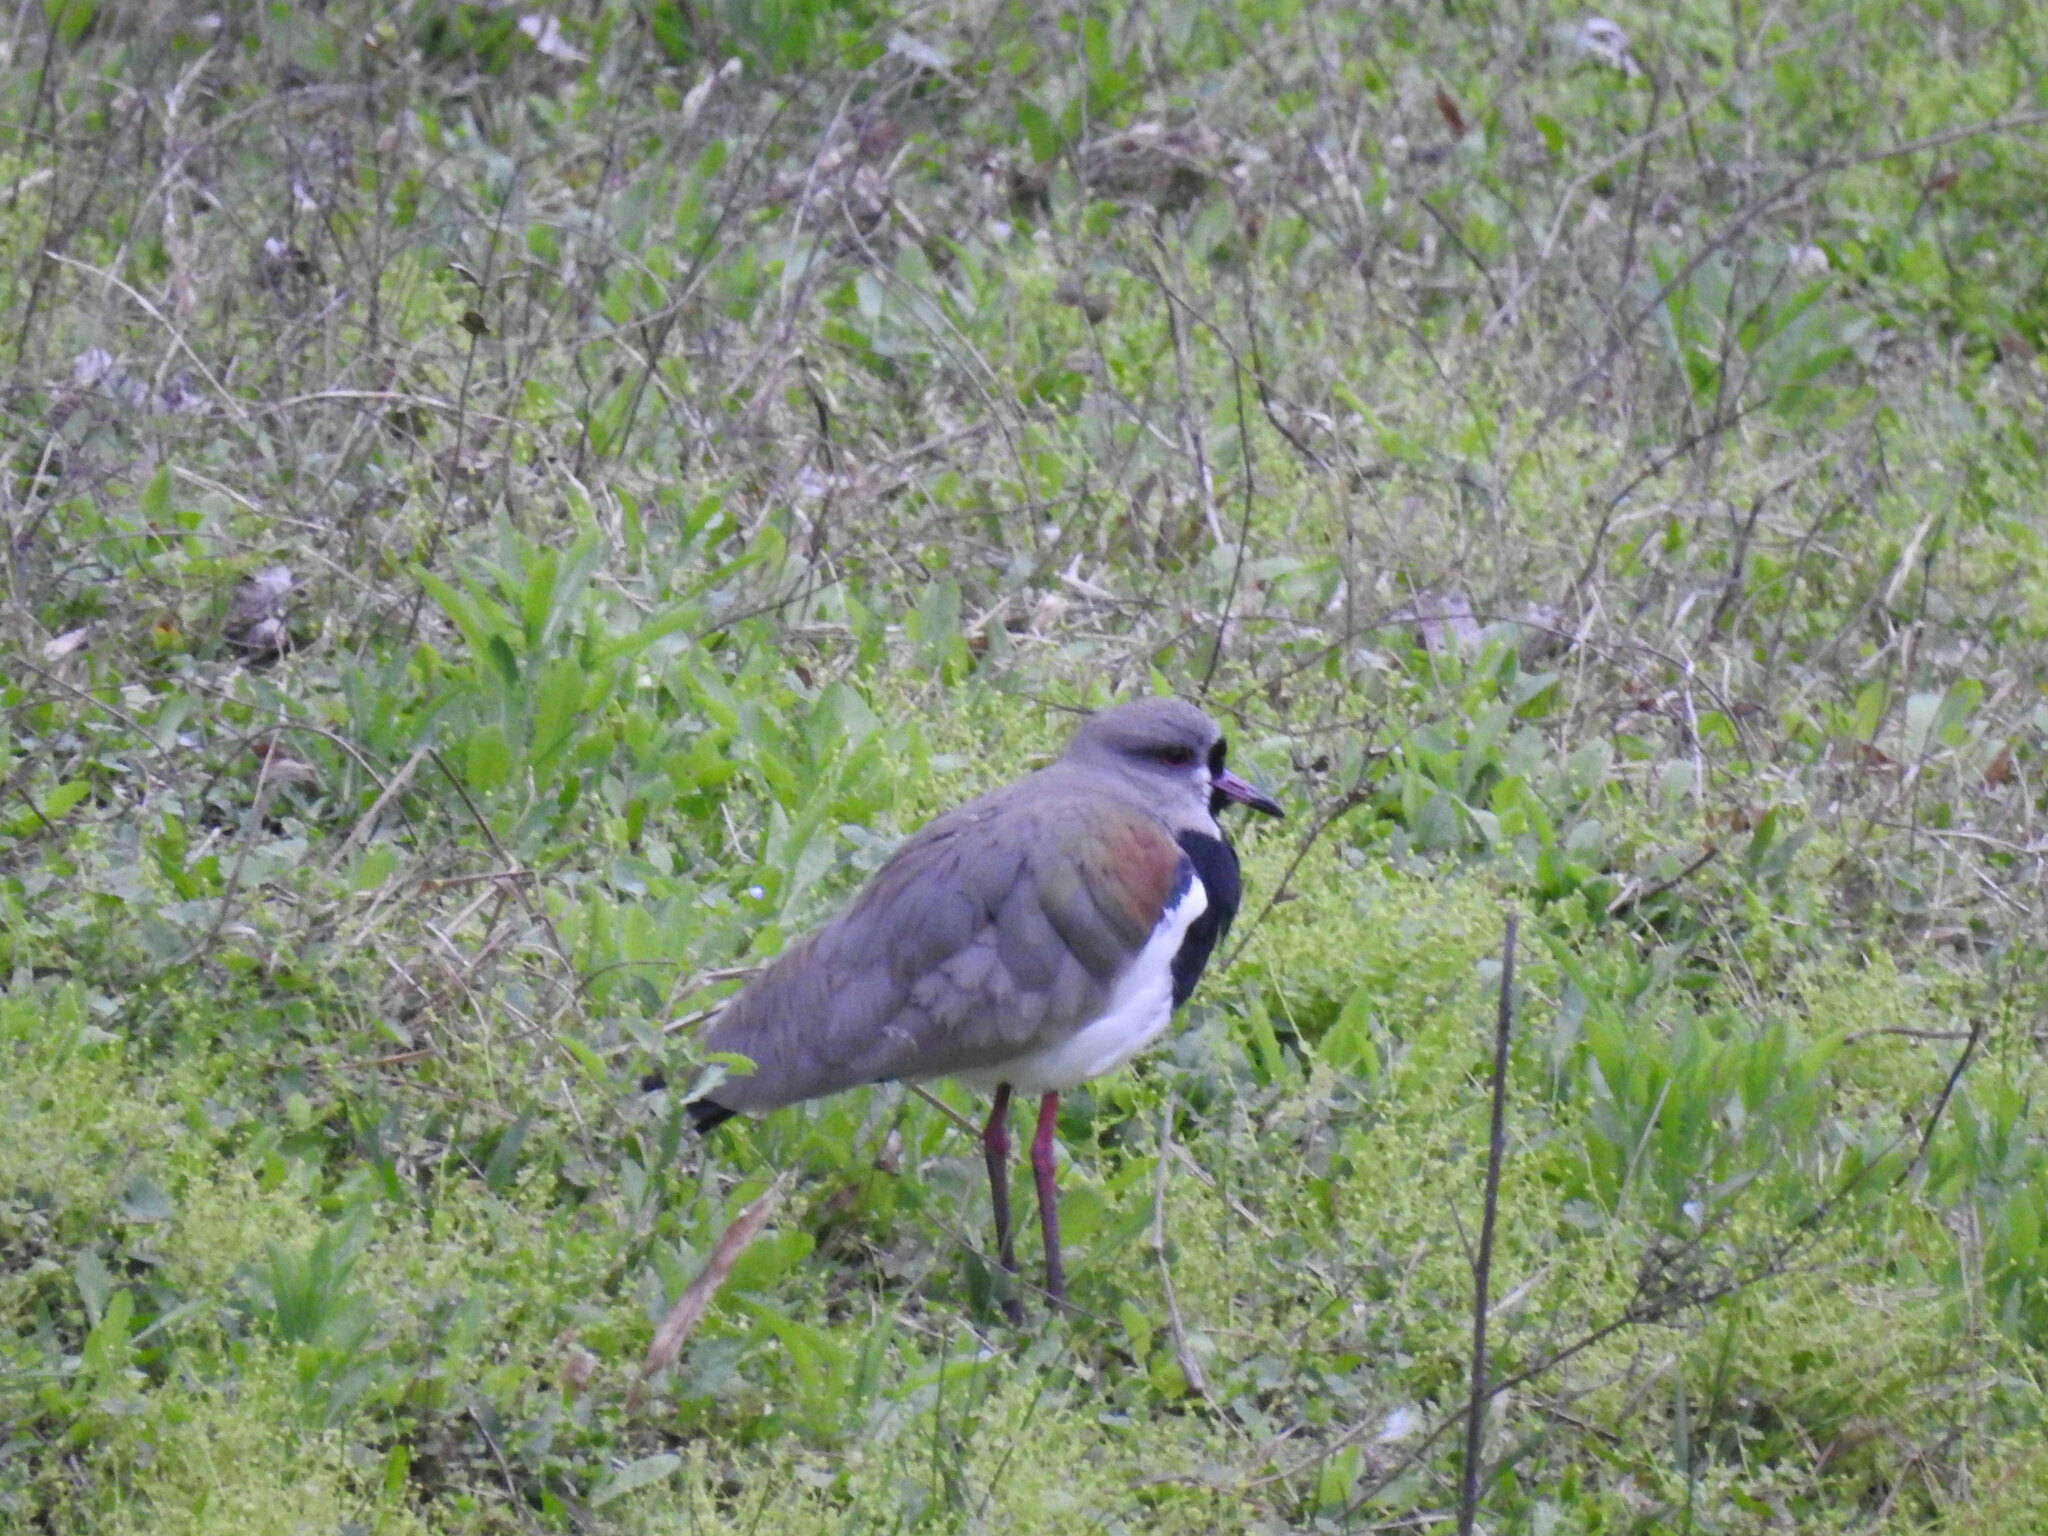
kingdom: Animalia
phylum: Chordata
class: Aves
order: Charadriiformes
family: Charadriidae
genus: Vanellus
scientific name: Vanellus chilensis
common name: Southern lapwing
